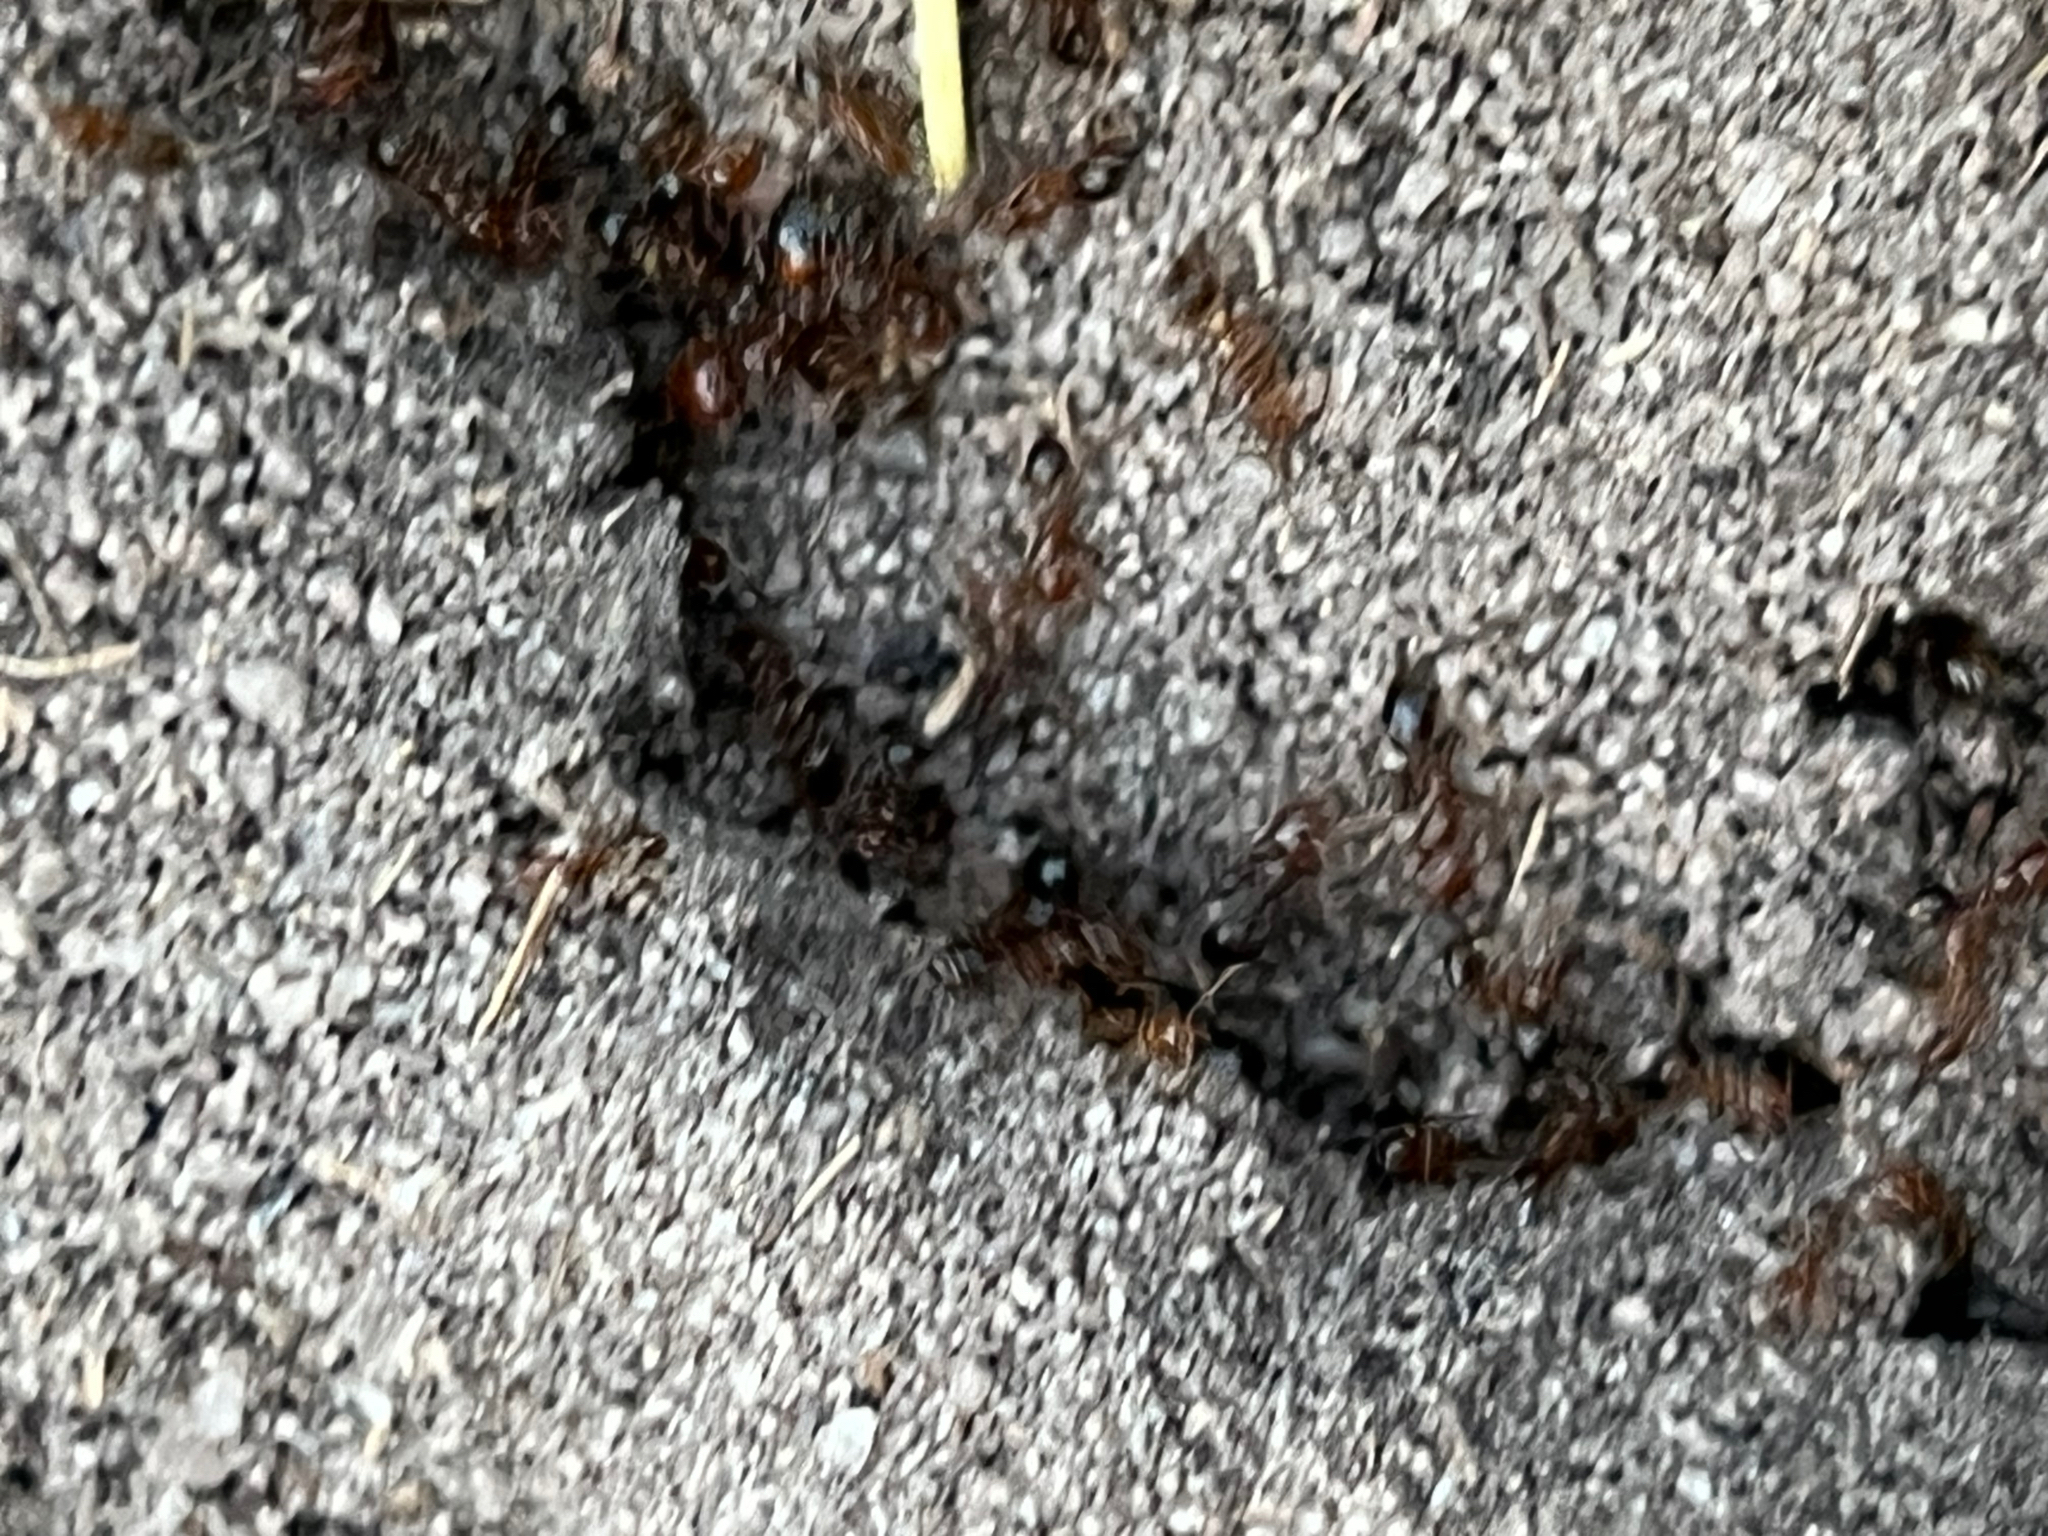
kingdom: Animalia
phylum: Arthropoda
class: Insecta
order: Hymenoptera
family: Formicidae
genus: Solenopsis
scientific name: Solenopsis invicta
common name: Red imported fire ant
